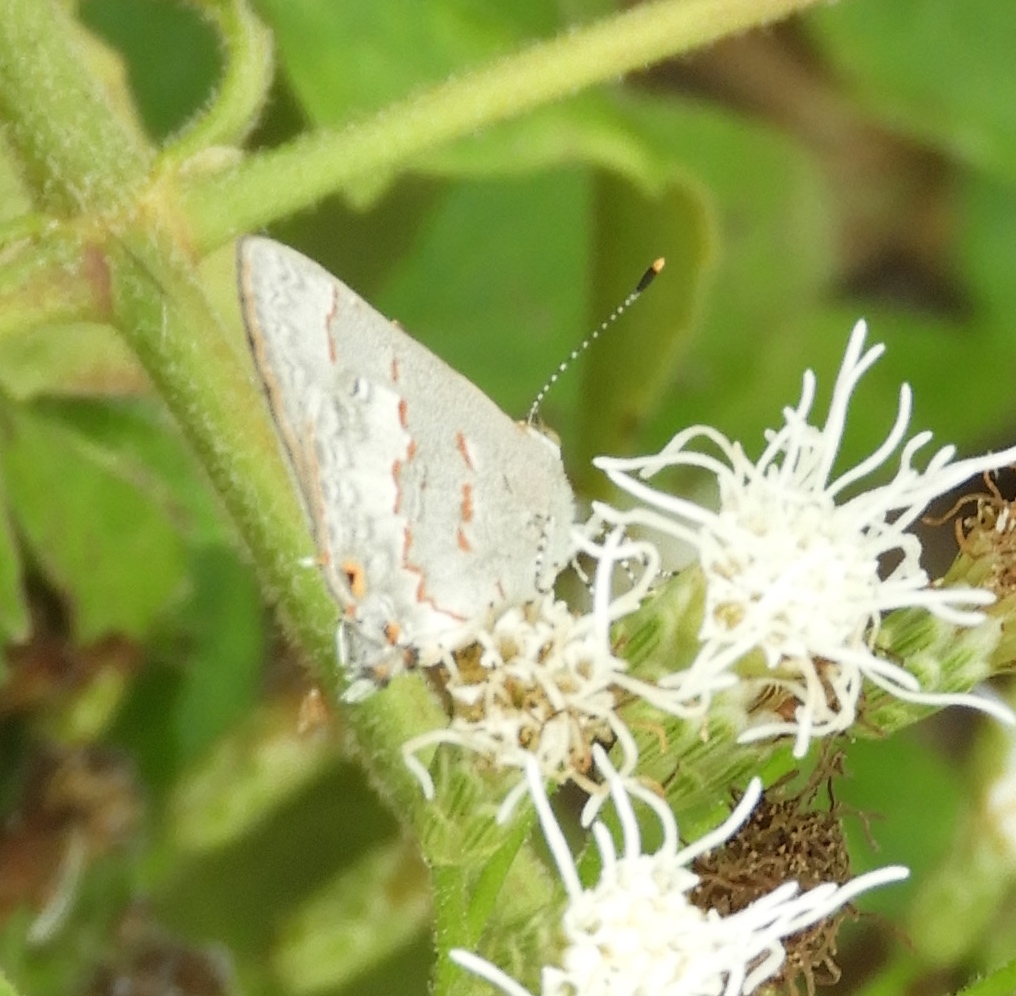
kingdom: Animalia
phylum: Arthropoda
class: Insecta
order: Lepidoptera
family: Lycaenidae
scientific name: Lycaenidae
